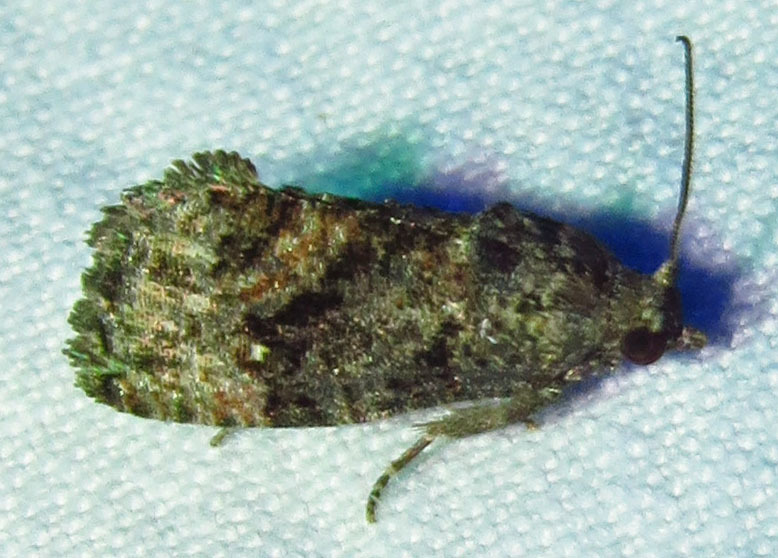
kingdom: Animalia
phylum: Arthropoda
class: Insecta
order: Lepidoptera
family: Tortricidae
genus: Gymnandrosoma
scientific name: Gymnandrosoma punctidiscanum
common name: Dotted ecdytolopha moth
